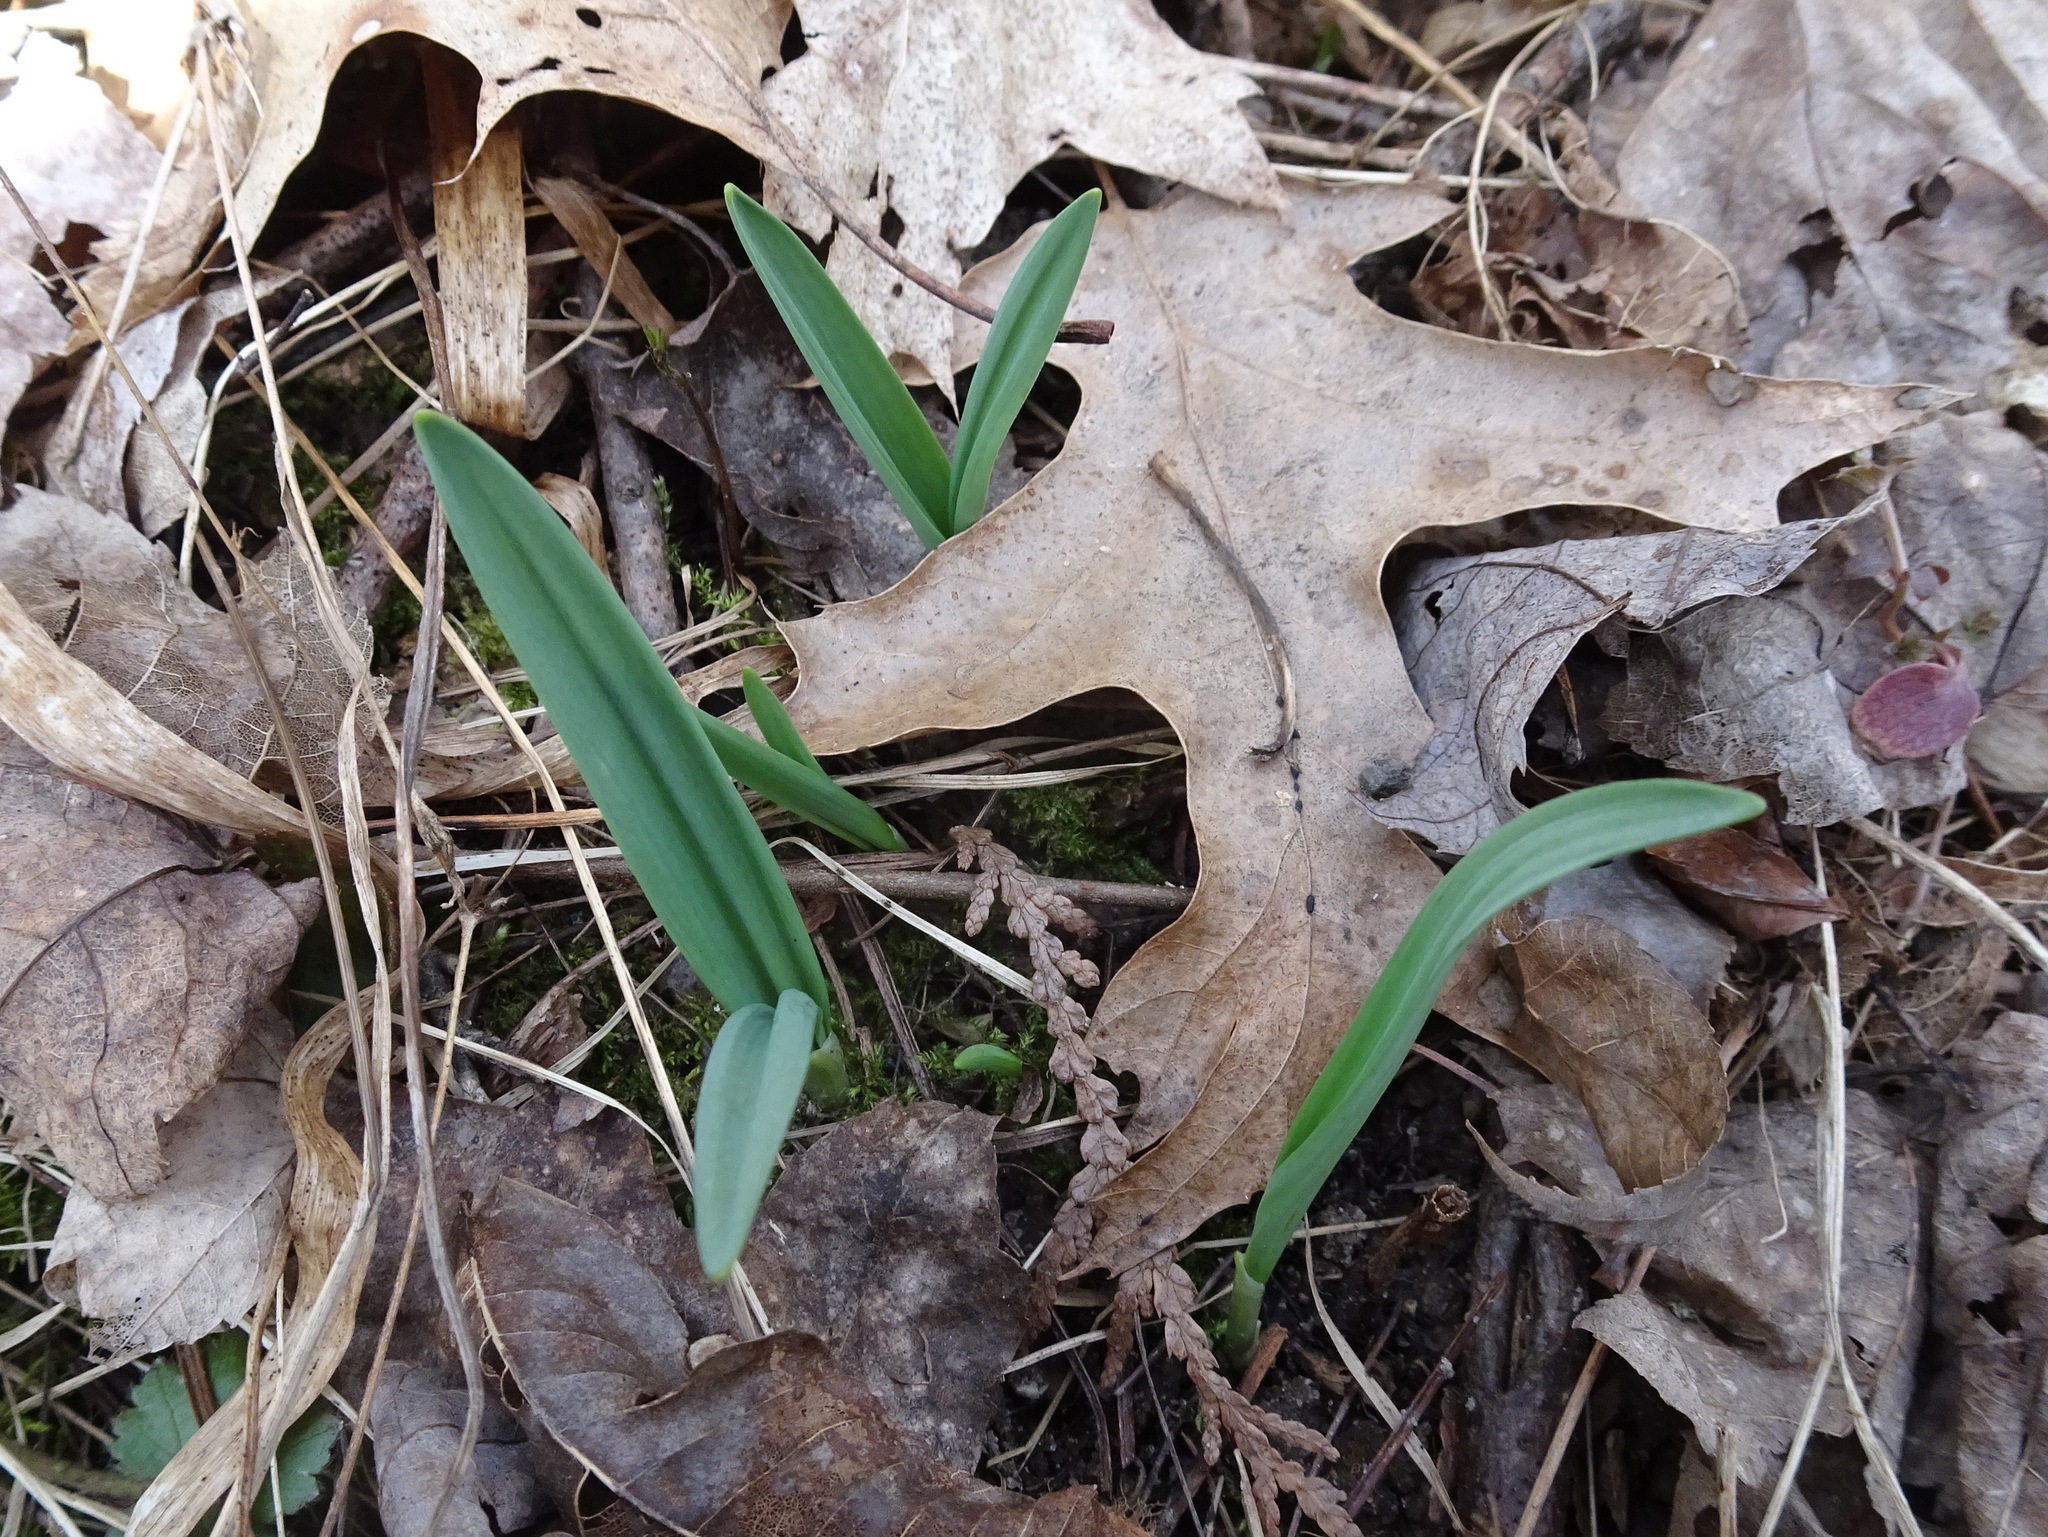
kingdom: Plantae
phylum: Tracheophyta
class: Liliopsida
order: Asparagales
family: Amaryllidaceae
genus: Allium
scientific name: Allium tricoccum
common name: Ramp
